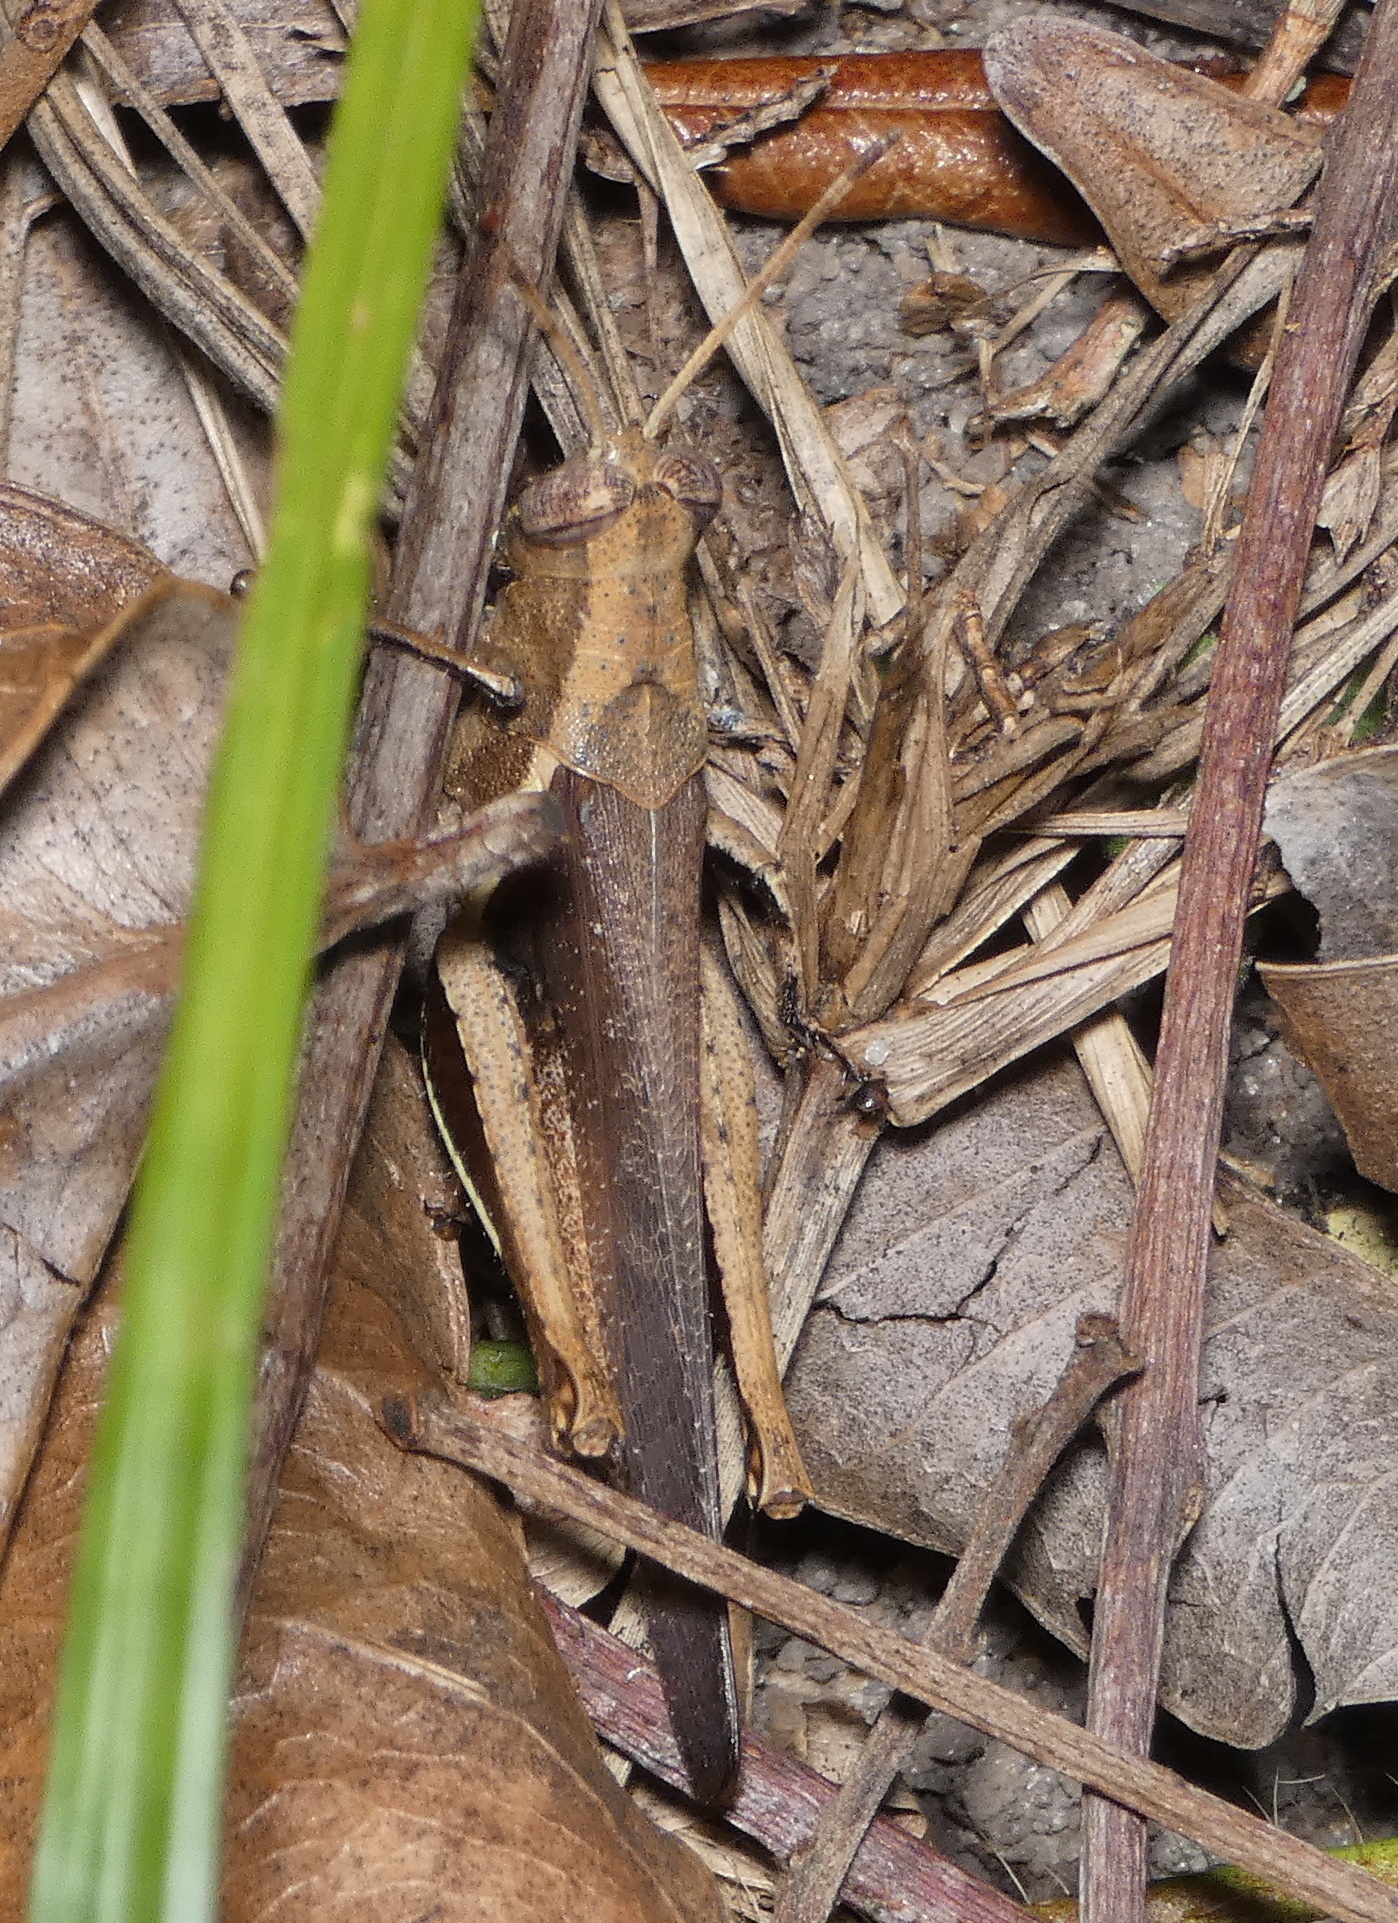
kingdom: Animalia
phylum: Arthropoda
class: Insecta
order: Orthoptera
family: Acrididae
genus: Abracris
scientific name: Abracris flavolineata
